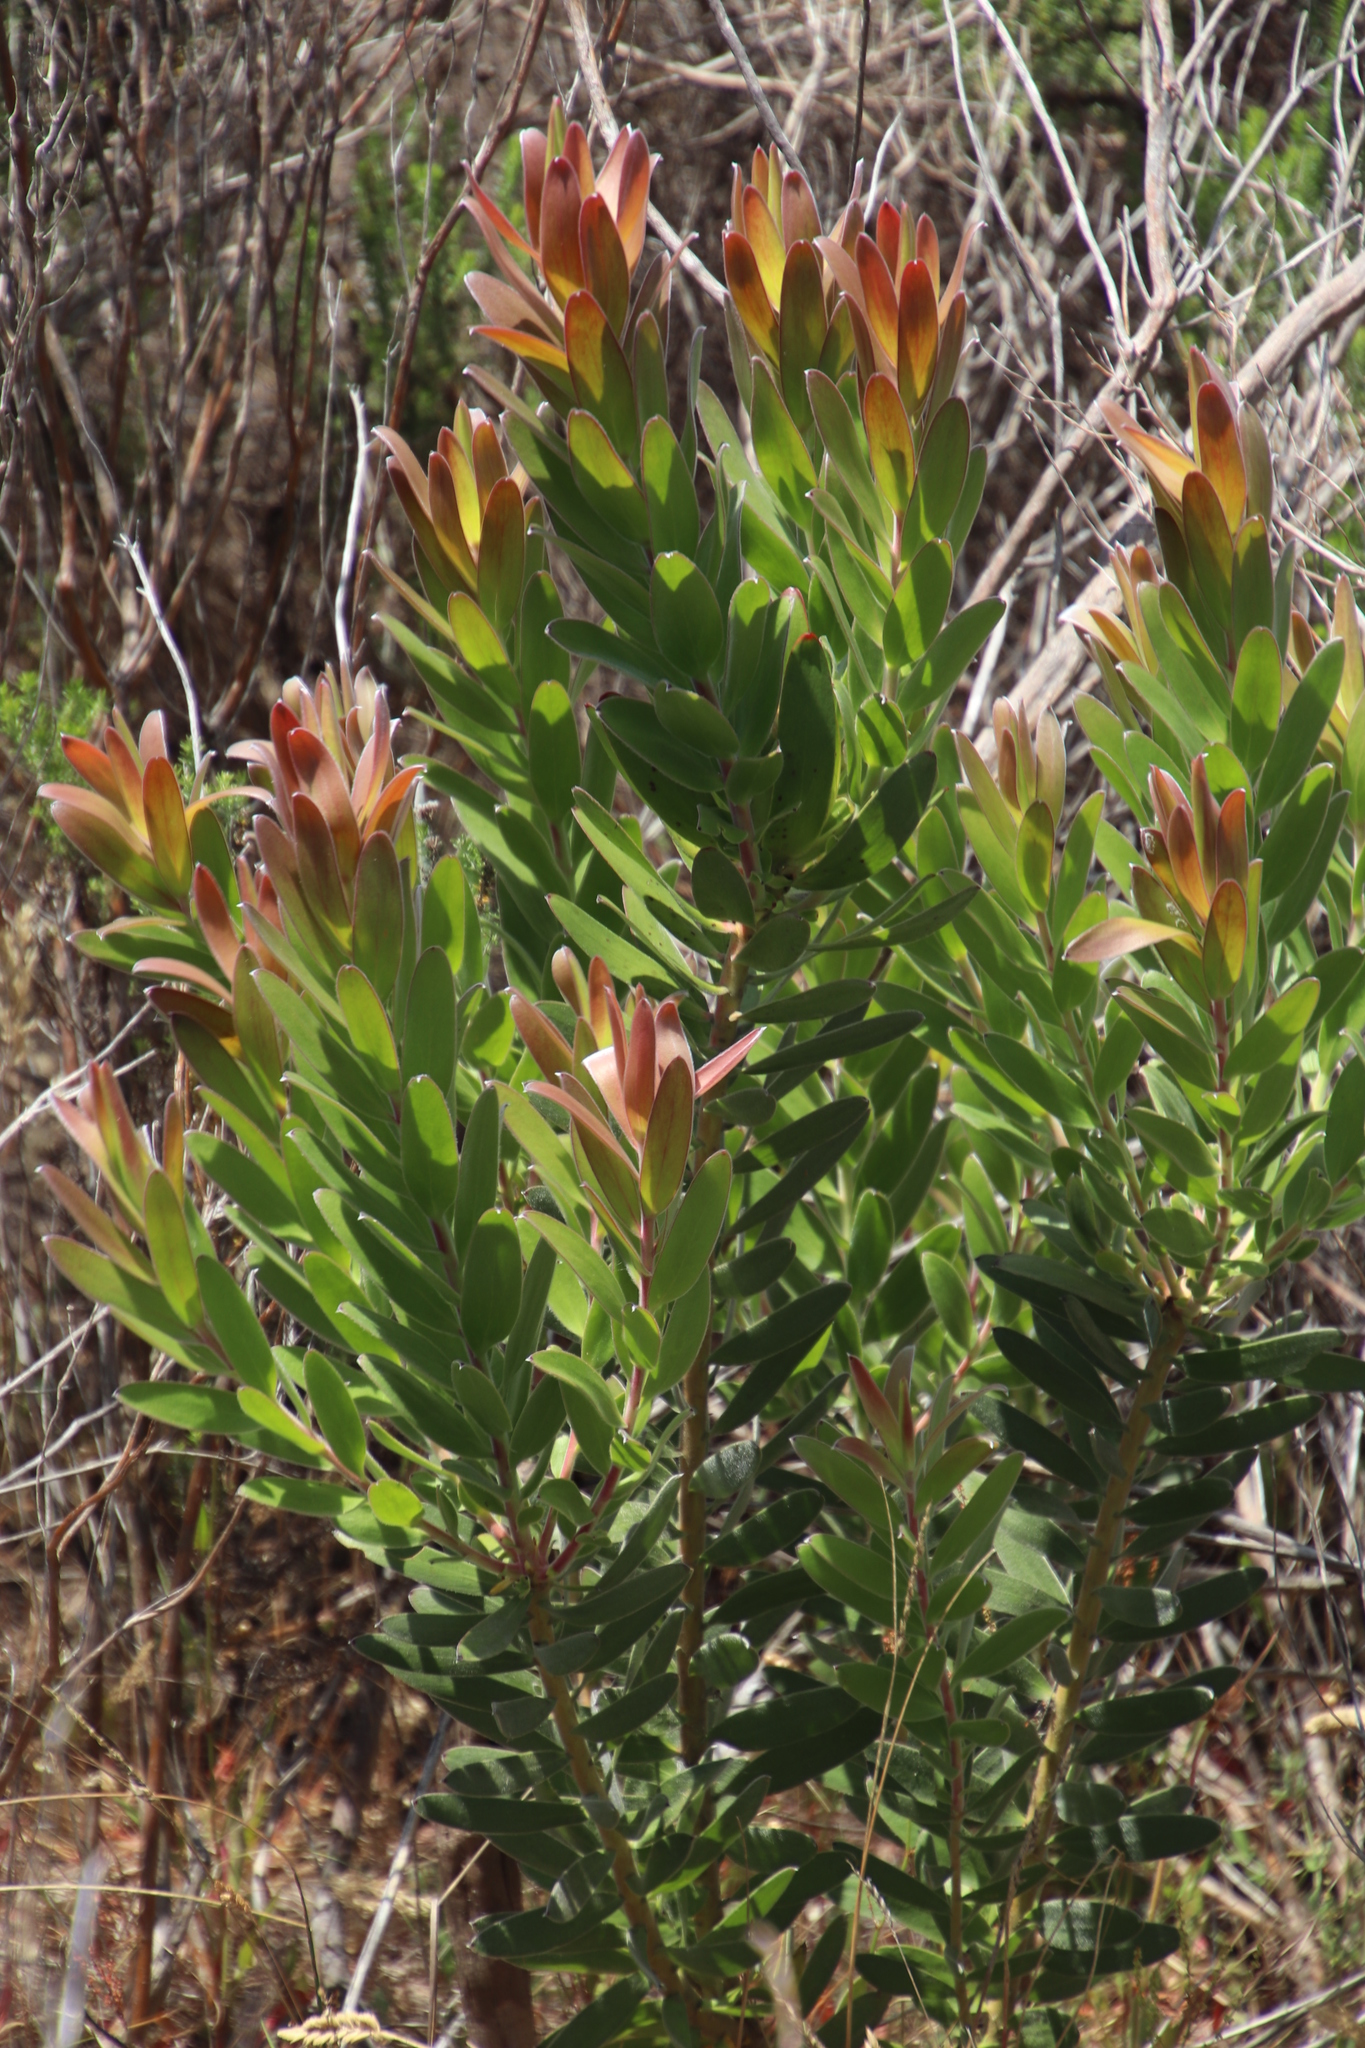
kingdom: Plantae
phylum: Tracheophyta
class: Magnoliopsida
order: Proteales
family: Proteaceae
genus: Leucadendron
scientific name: Leucadendron laureolum
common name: Golden sunshinebush
